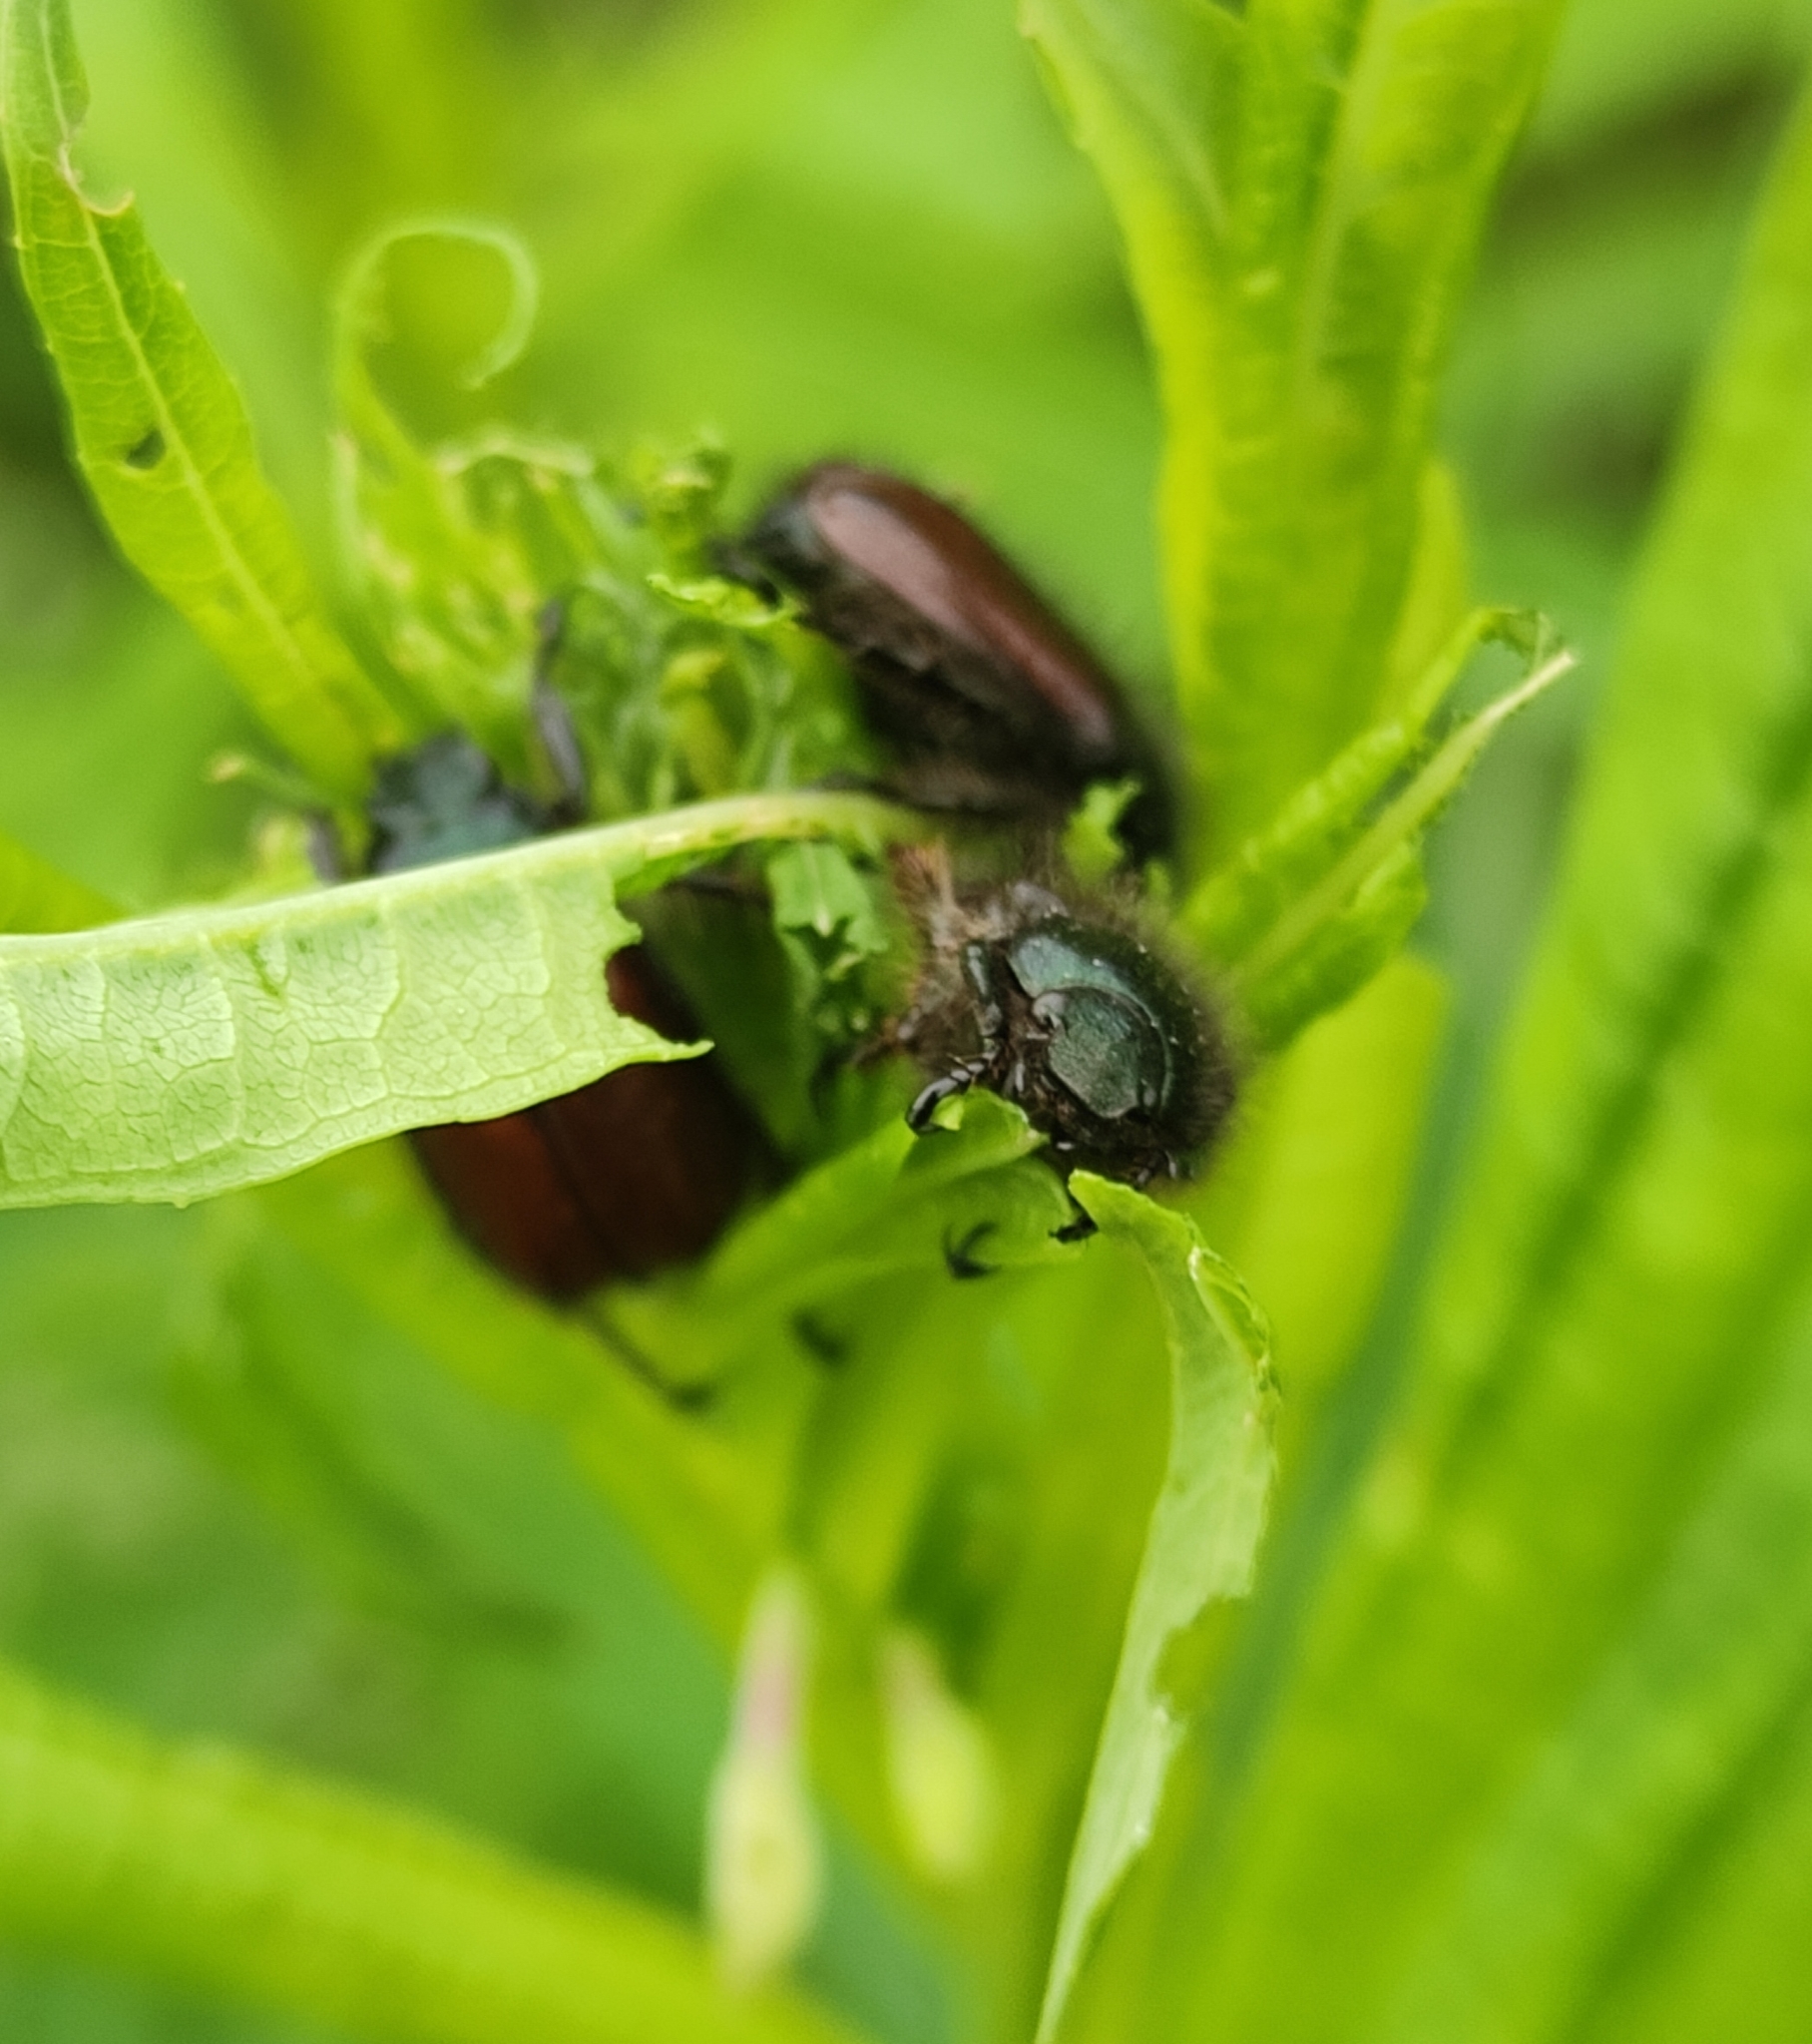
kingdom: Animalia
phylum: Arthropoda
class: Insecta
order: Coleoptera
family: Scarabaeidae
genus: Phyllopertha
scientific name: Phyllopertha horticola
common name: Garden chafer
